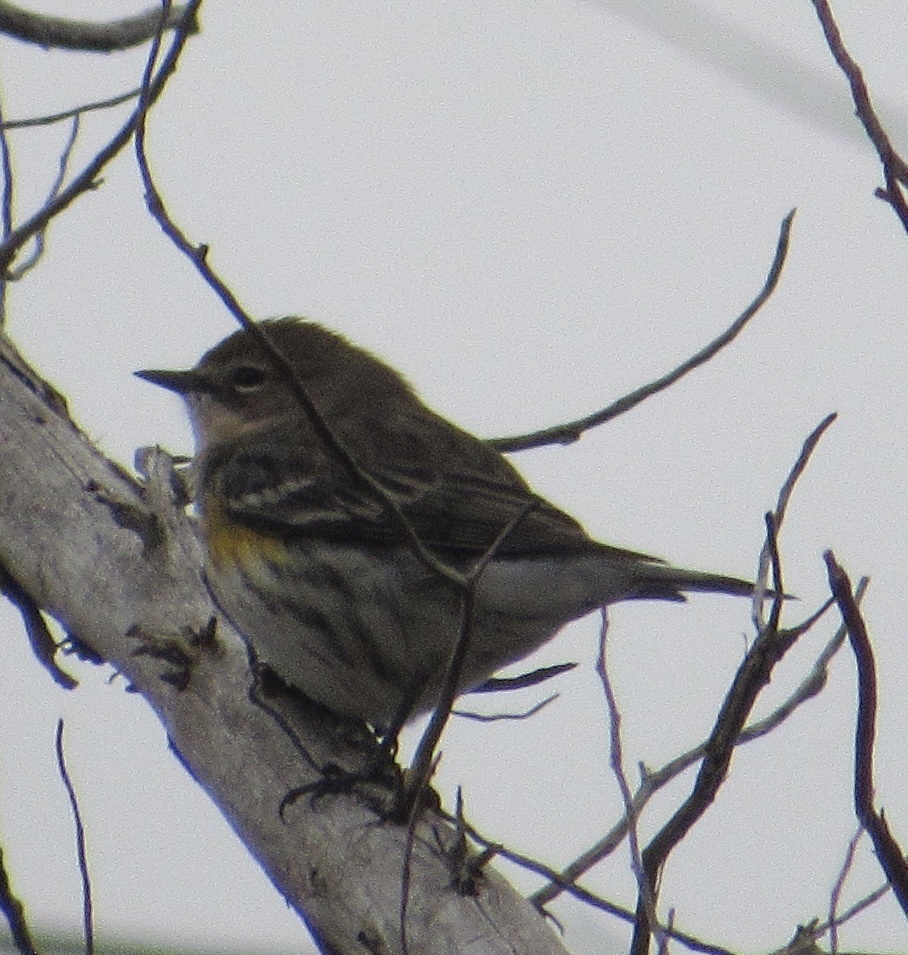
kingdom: Animalia
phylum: Chordata
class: Aves
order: Passeriformes
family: Parulidae
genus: Setophaga
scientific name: Setophaga coronata
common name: Myrtle warbler
